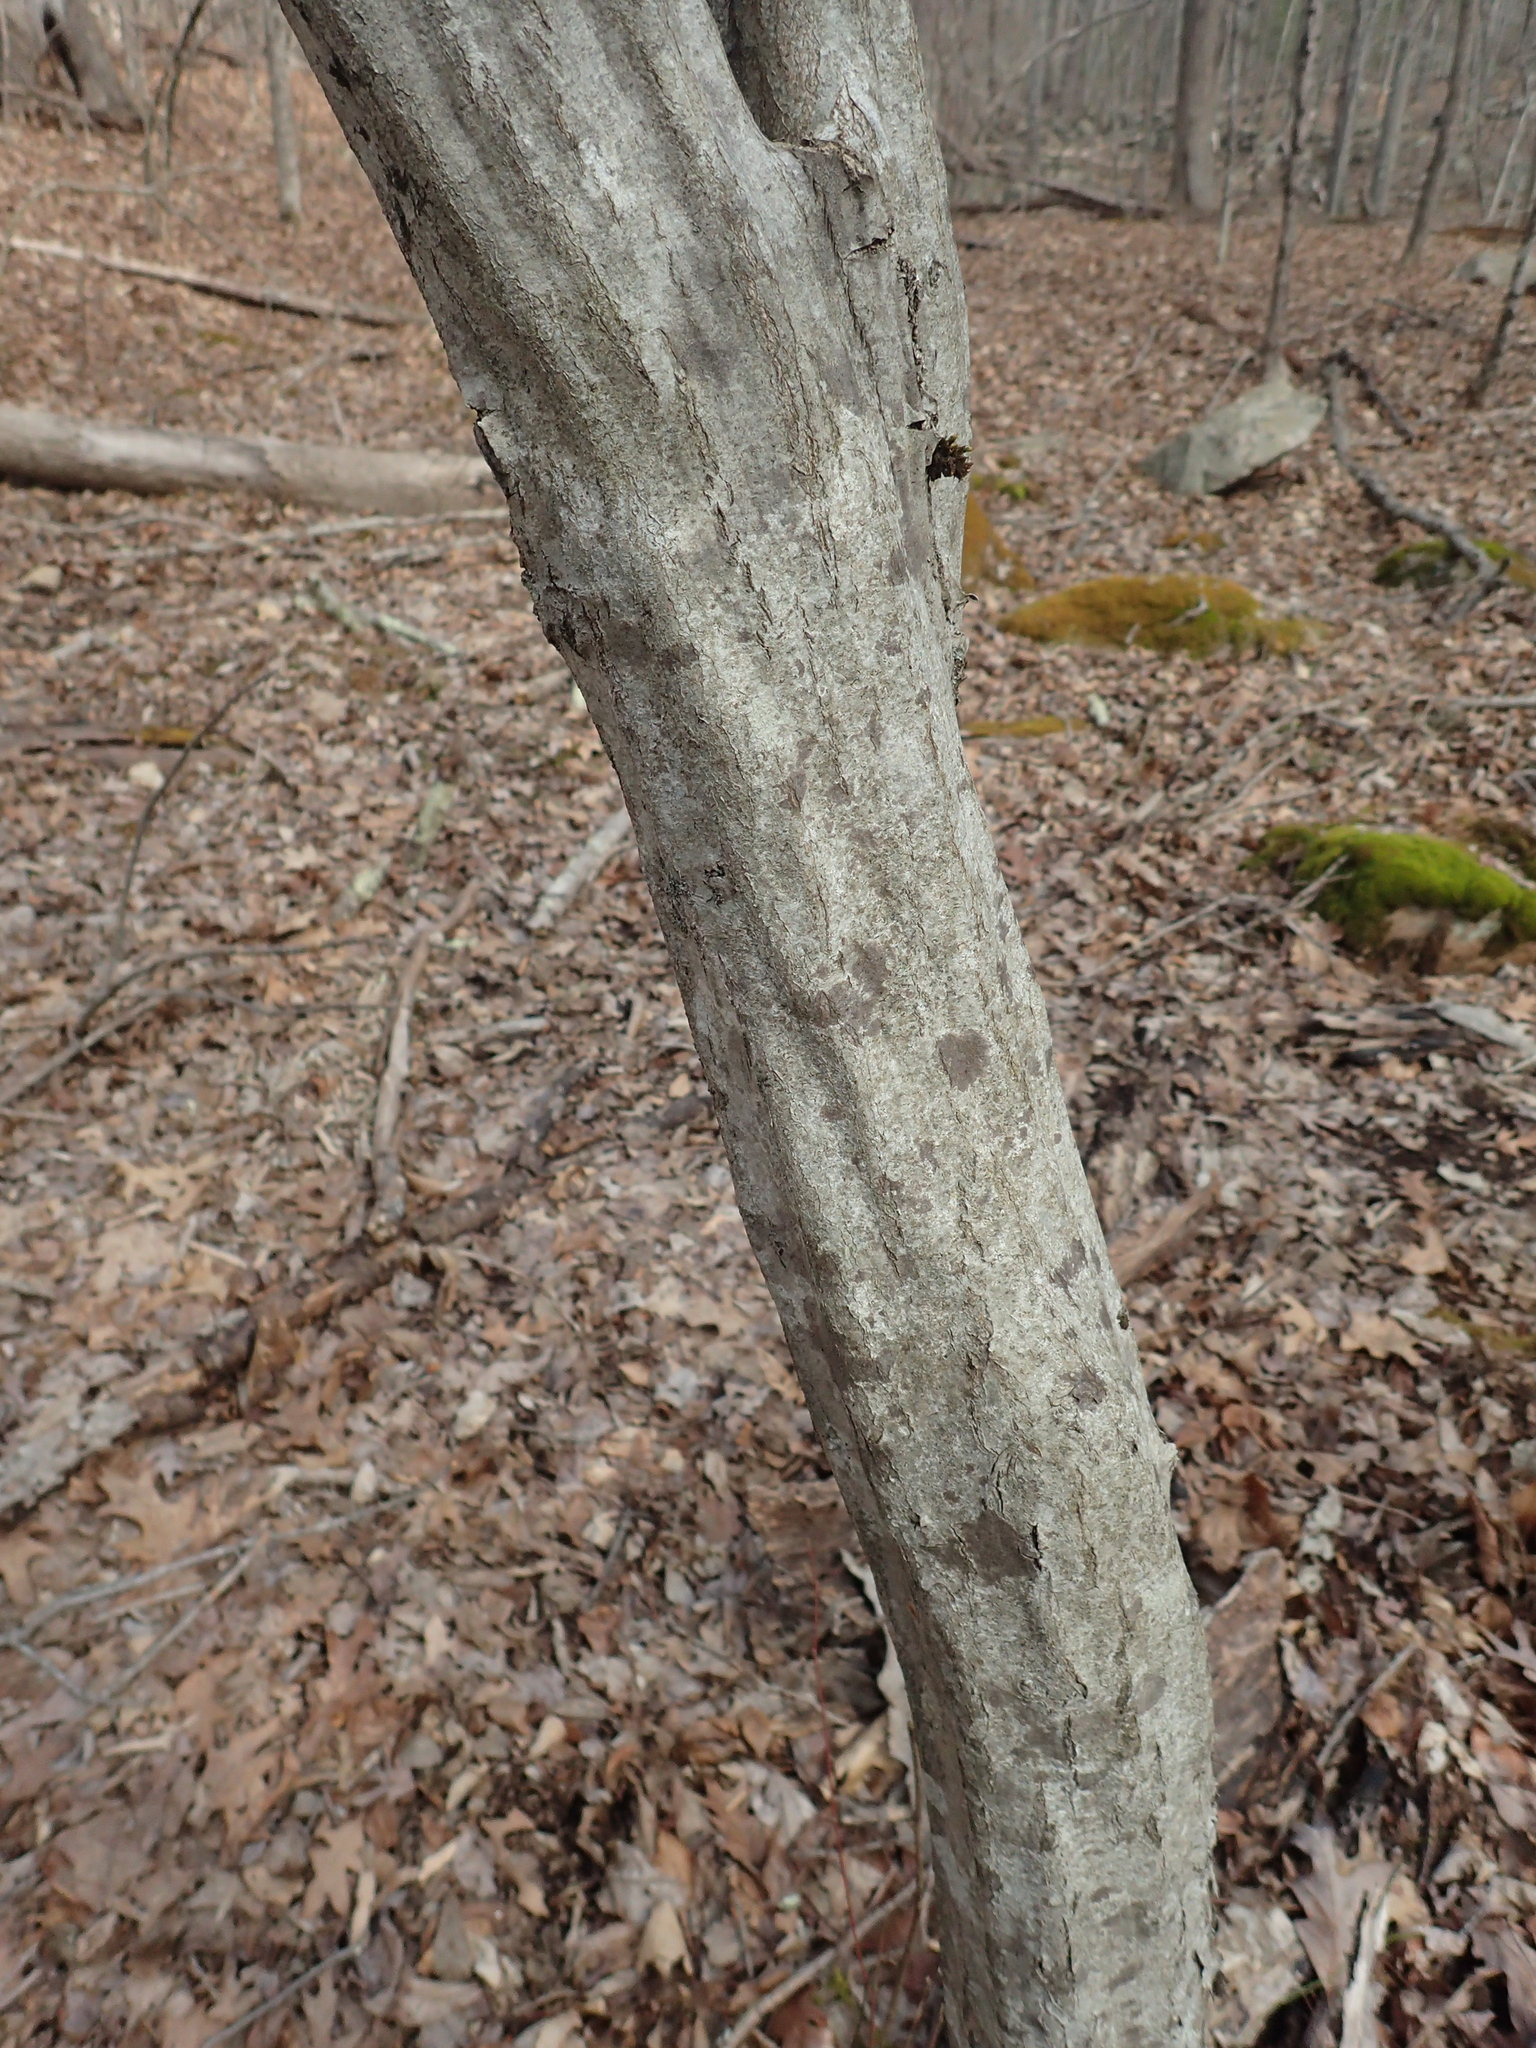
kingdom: Plantae
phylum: Tracheophyta
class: Magnoliopsida
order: Fagales
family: Betulaceae
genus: Carpinus
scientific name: Carpinus caroliniana
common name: American hornbeam
